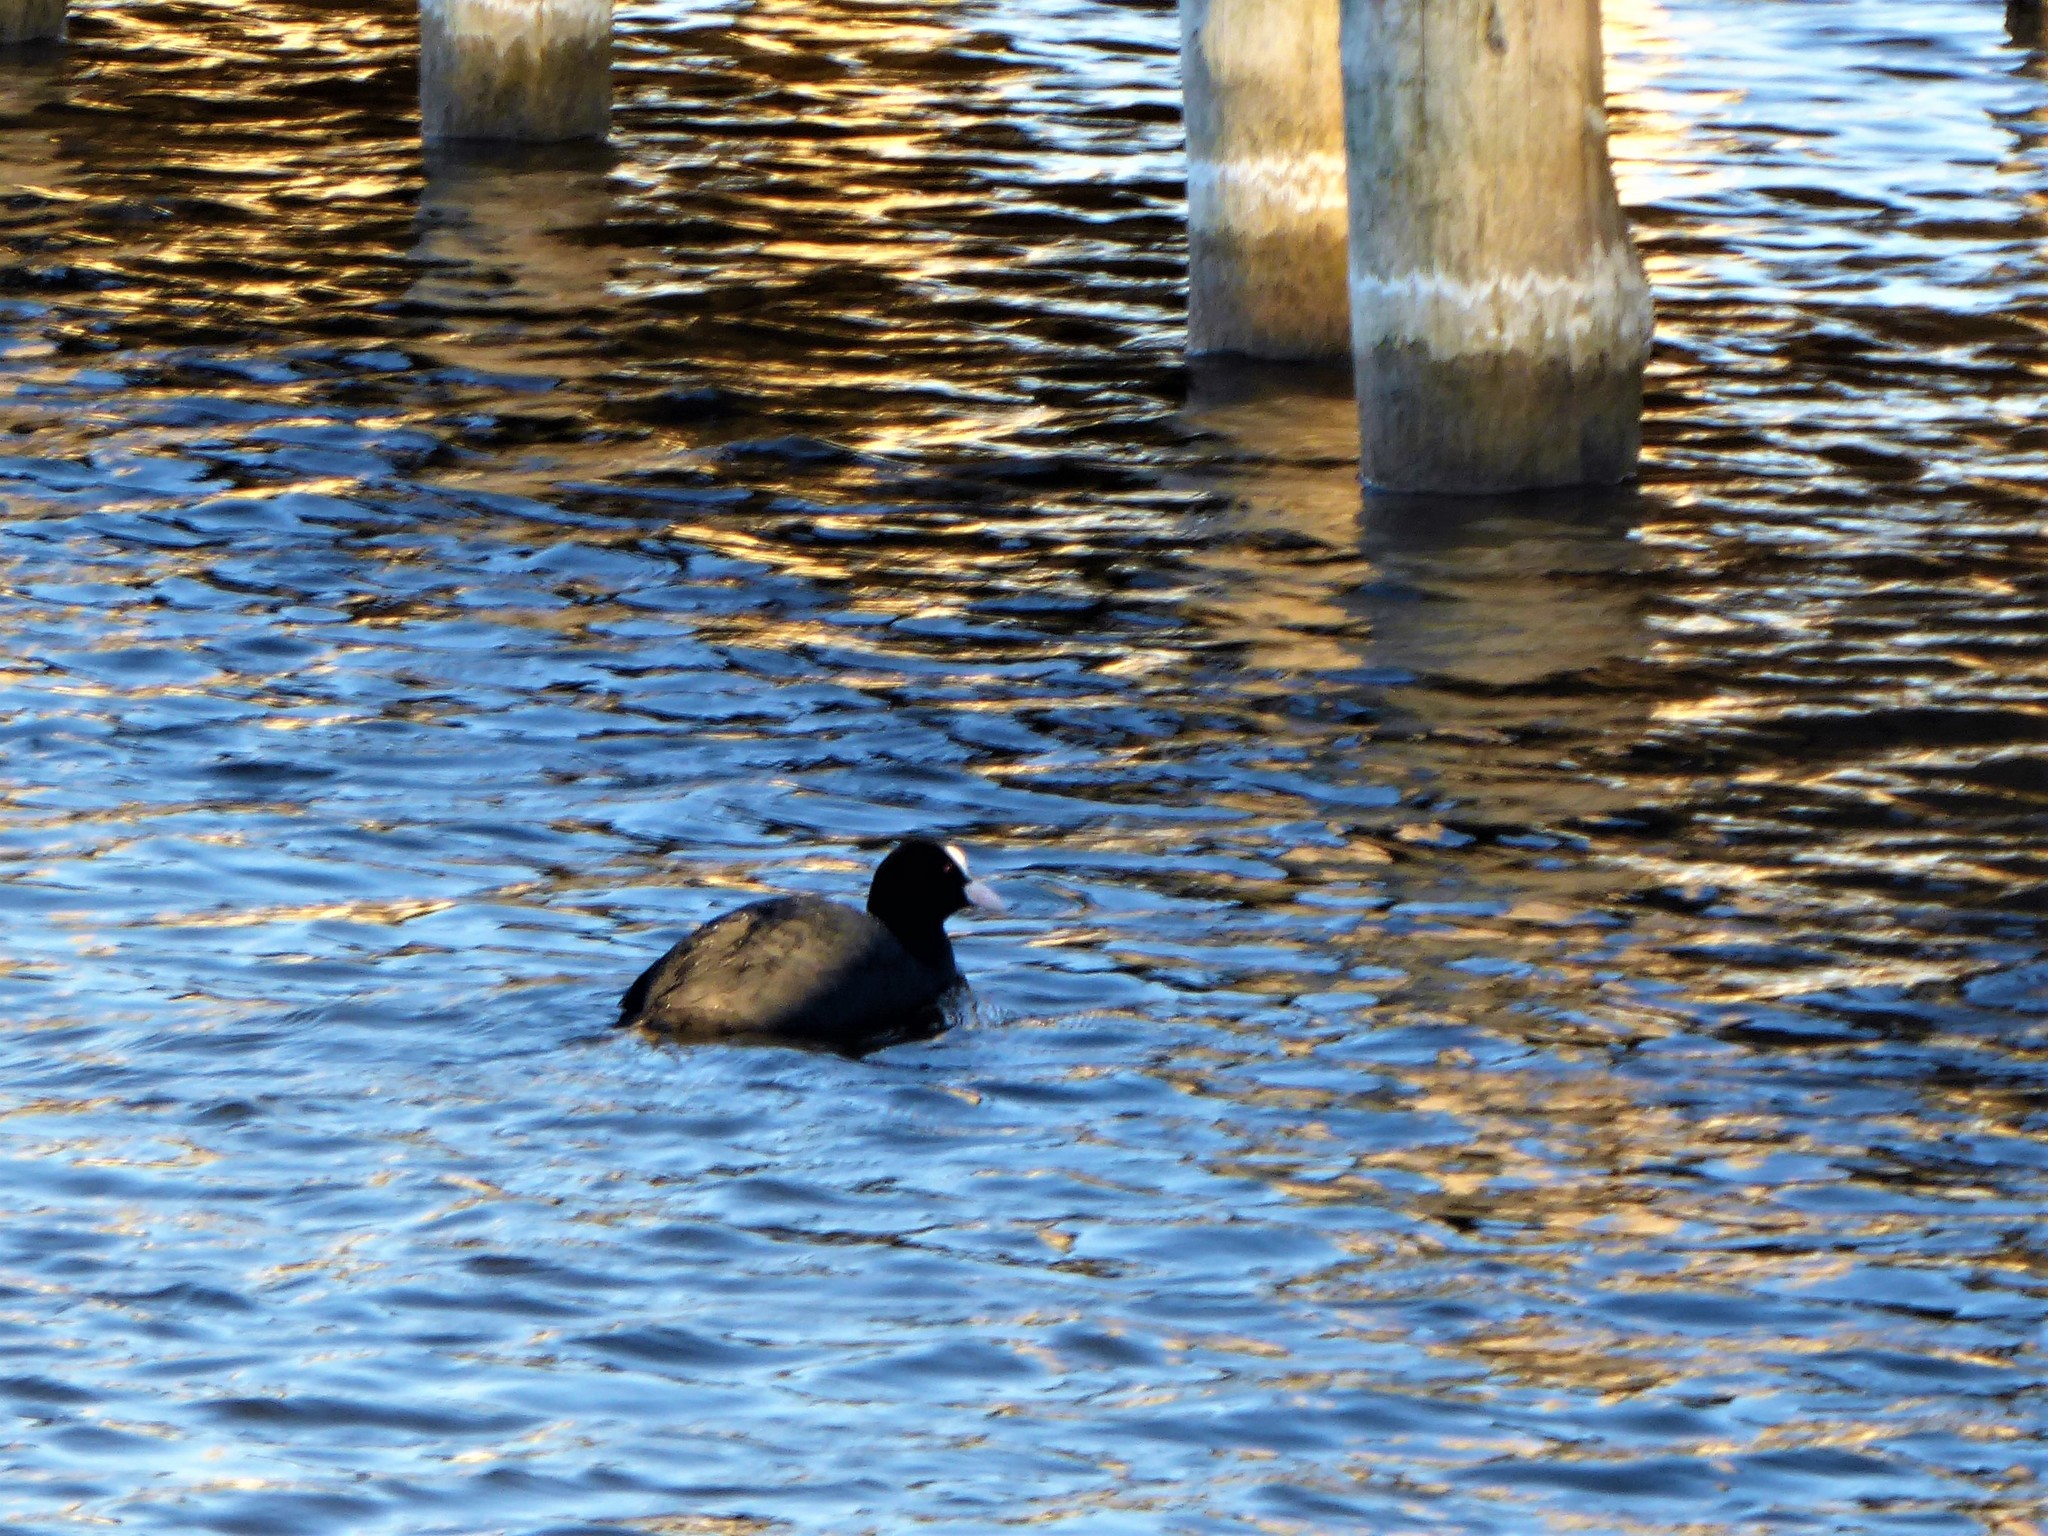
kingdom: Animalia
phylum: Chordata
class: Aves
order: Gruiformes
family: Rallidae
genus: Fulica
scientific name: Fulica atra
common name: Eurasian coot
